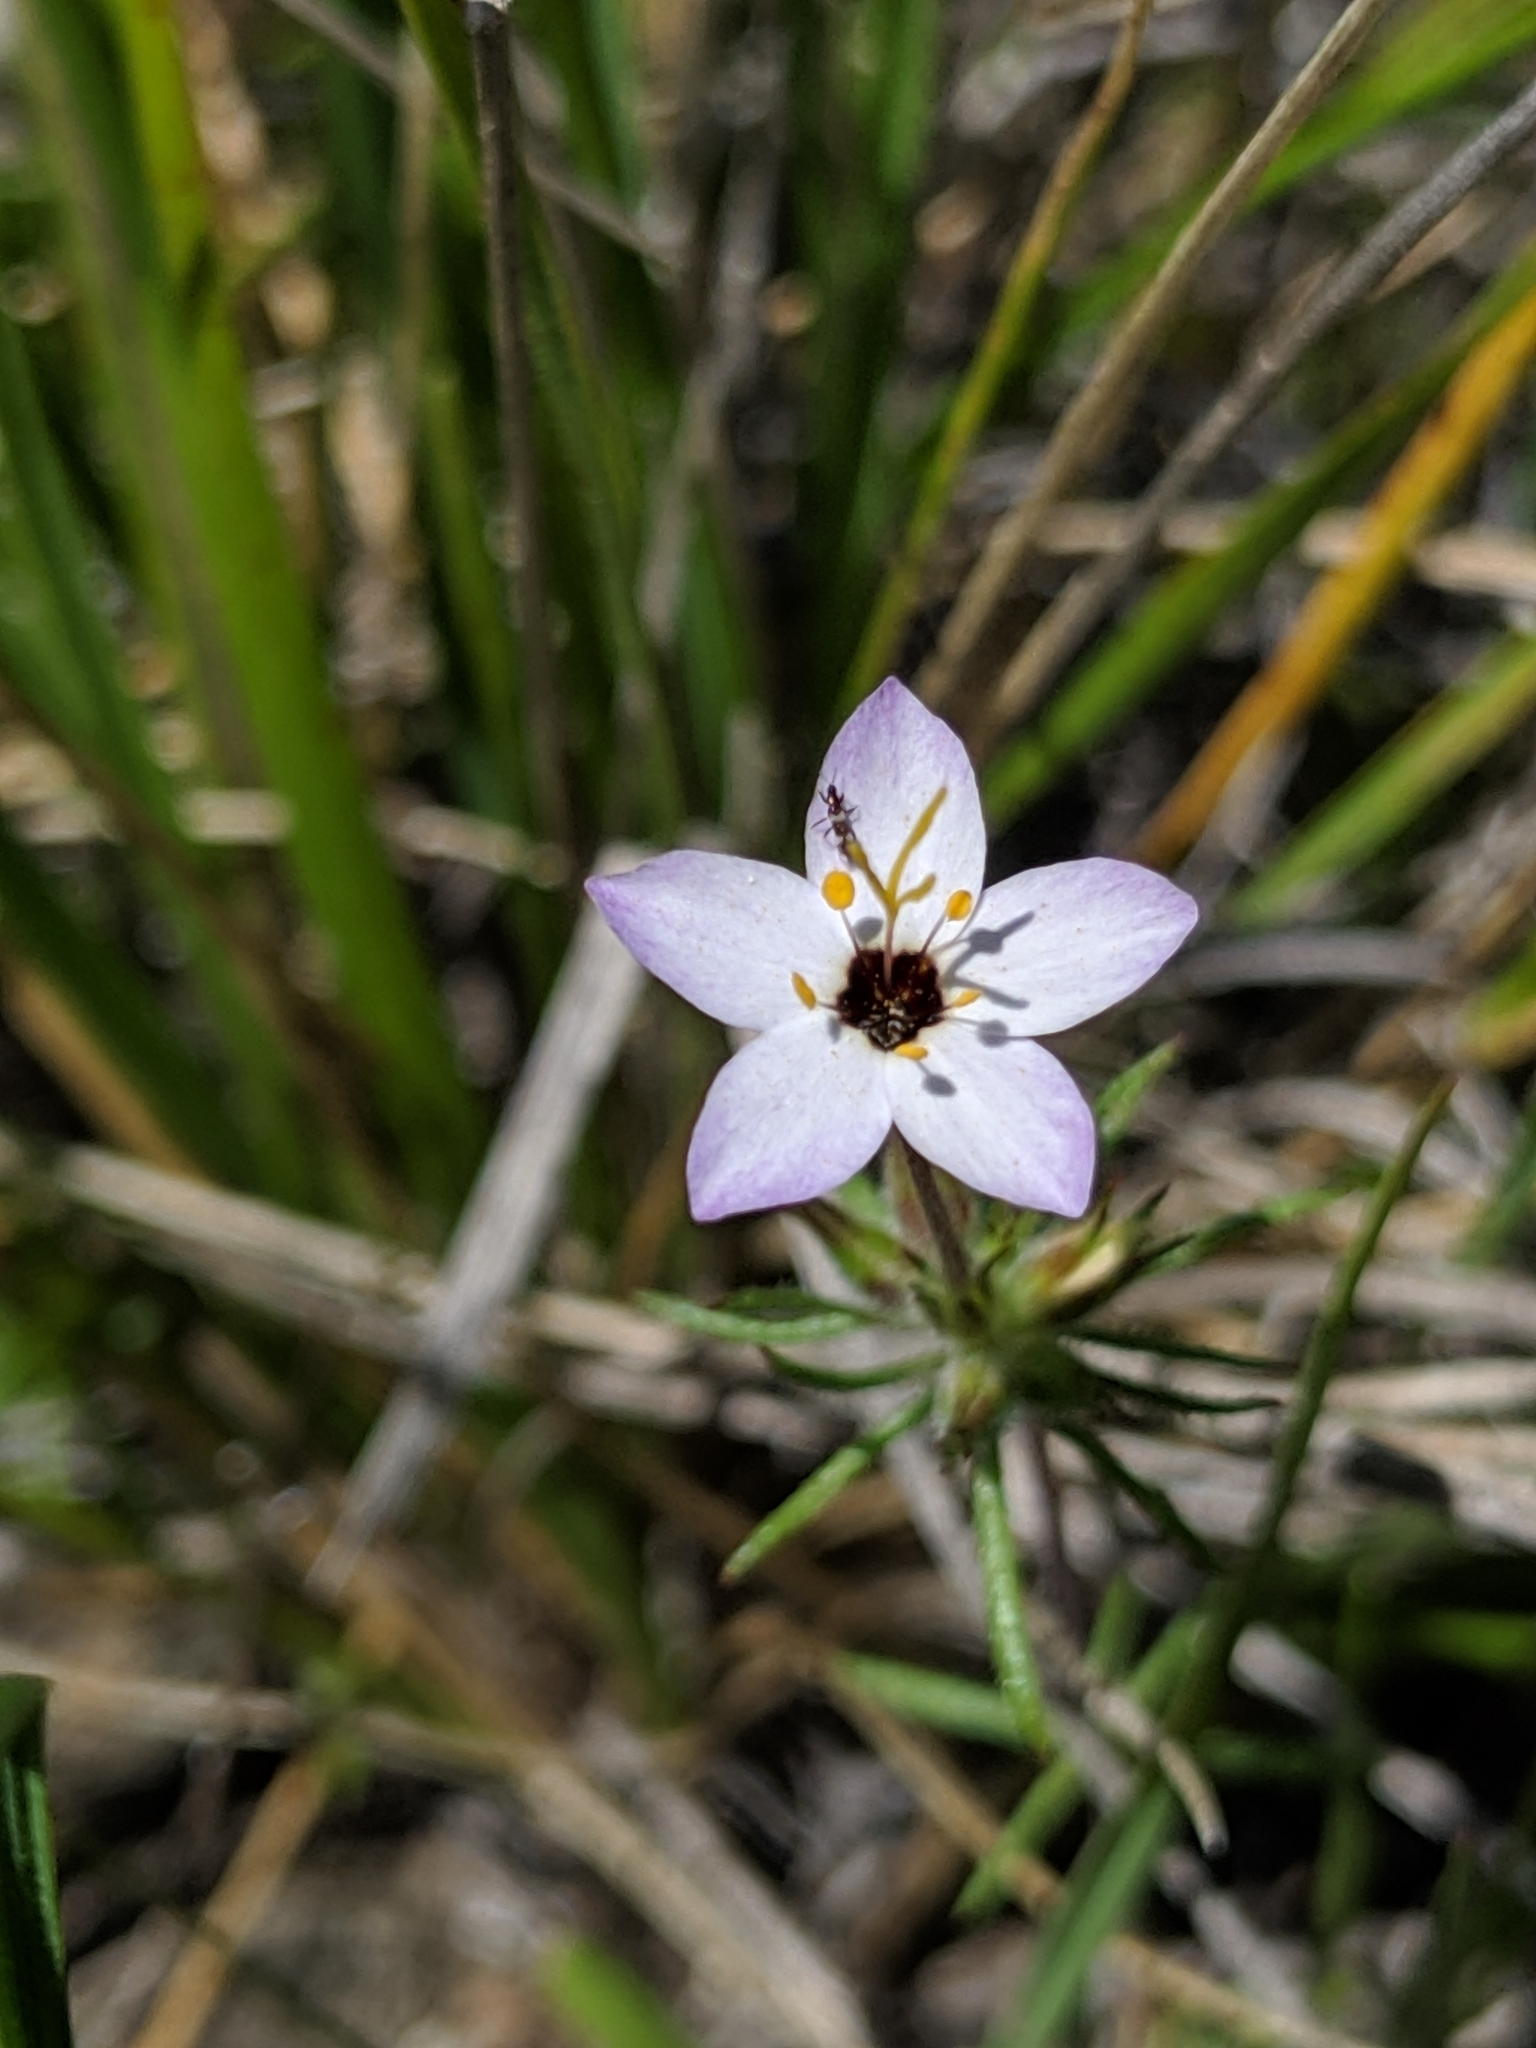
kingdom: Plantae
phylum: Tracheophyta
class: Magnoliopsida
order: Ericales
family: Polemoniaceae
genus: Leptosiphon
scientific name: Leptosiphon parviflorus
